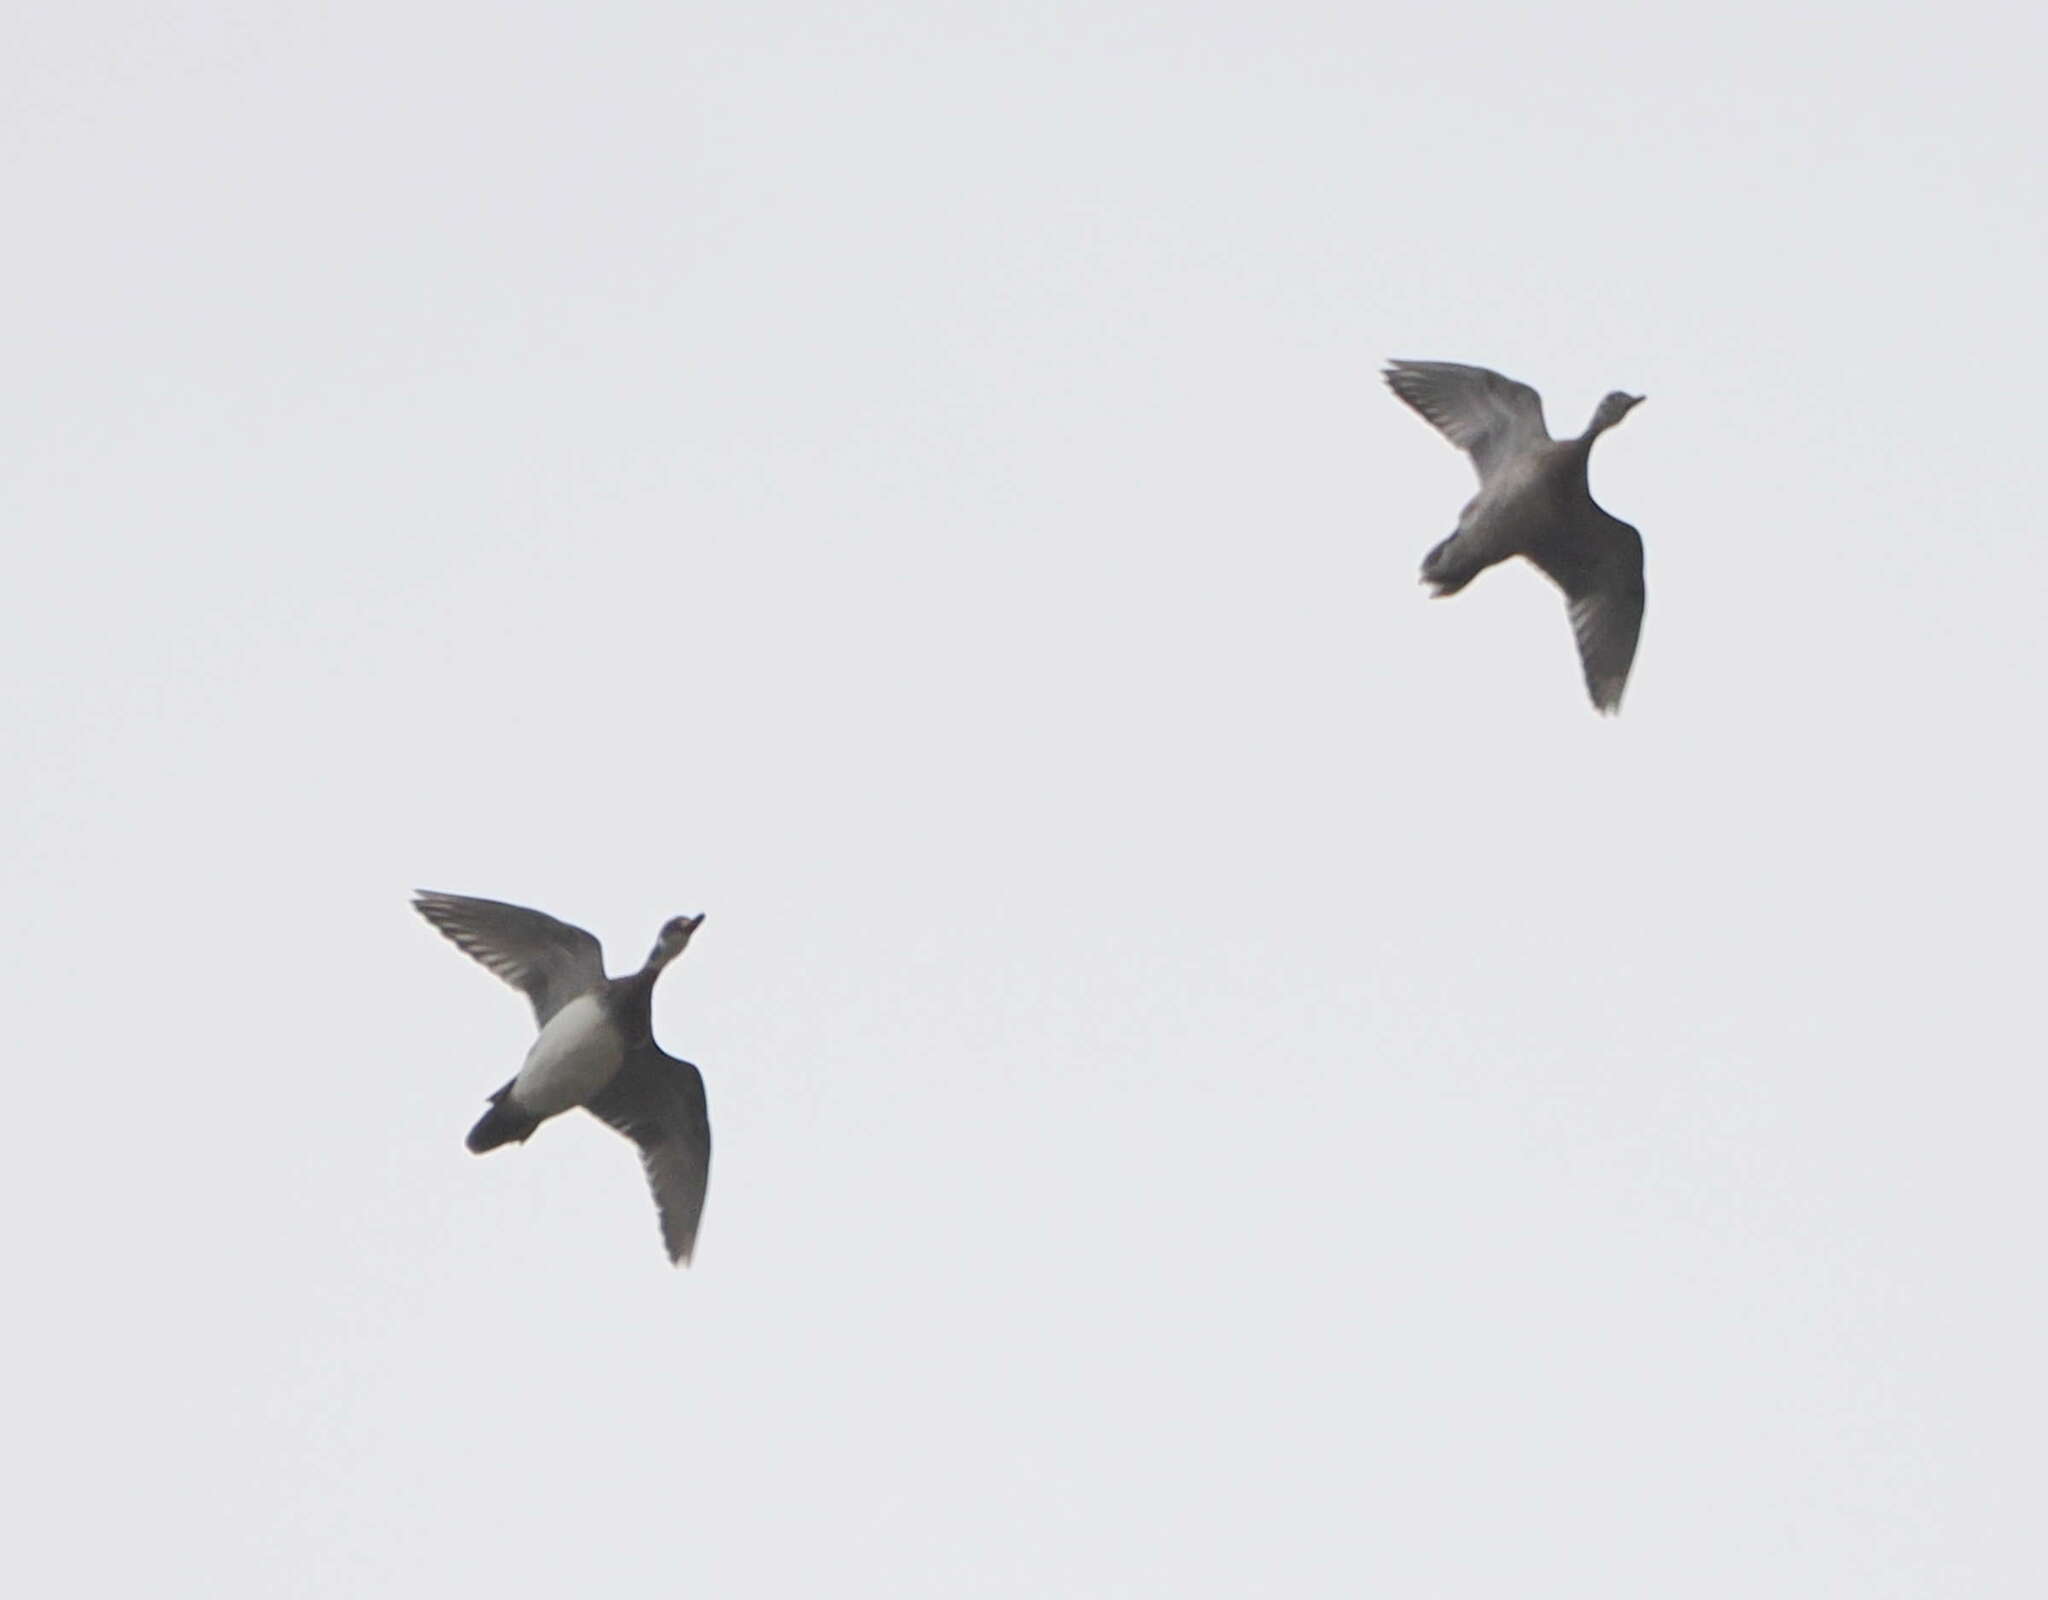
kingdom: Animalia
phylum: Chordata
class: Aves
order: Anseriformes
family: Anatidae
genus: Aix
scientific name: Aix sponsa
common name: Wood duck
